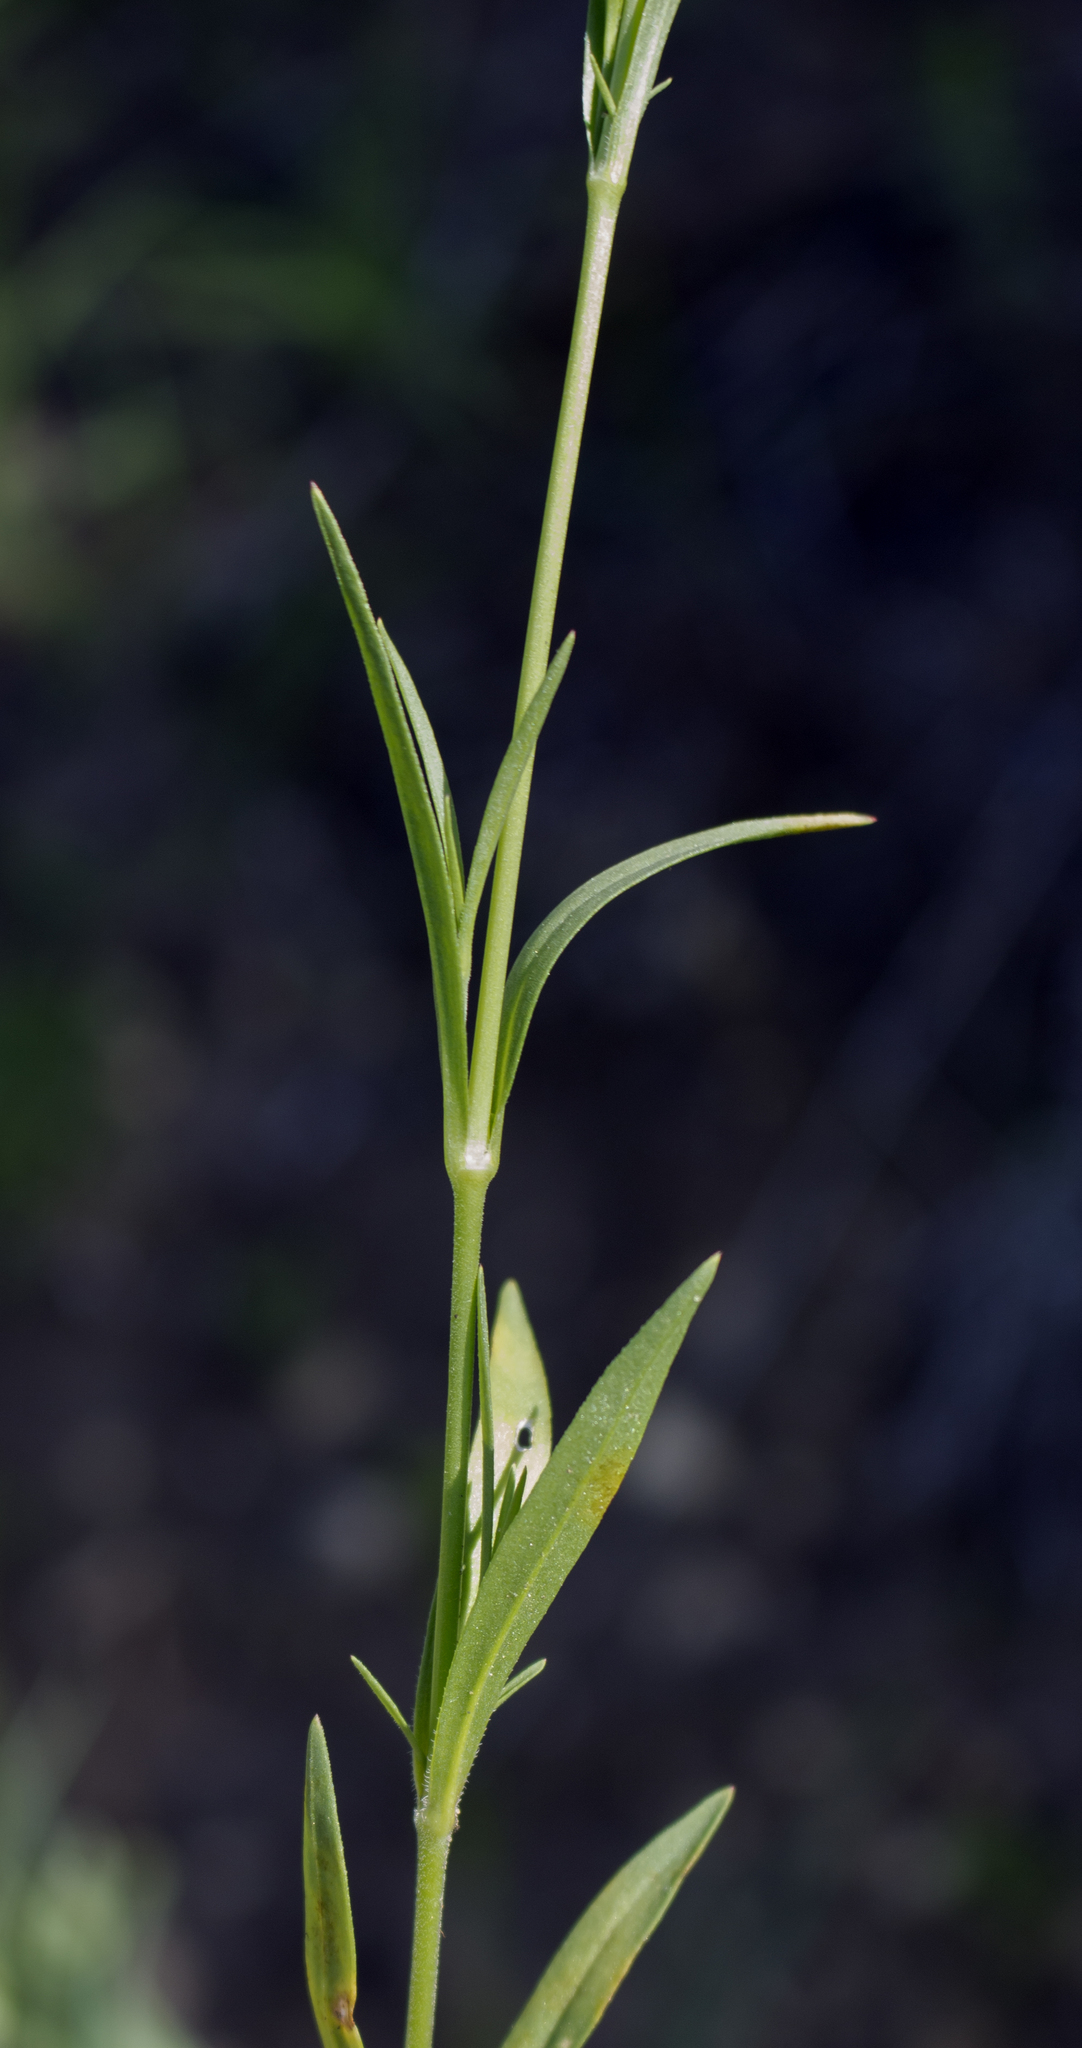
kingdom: Plantae
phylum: Tracheophyta
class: Magnoliopsida
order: Caryophyllales
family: Caryophyllaceae
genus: Silene
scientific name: Silene antirrhina
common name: Sleepy catchfly
